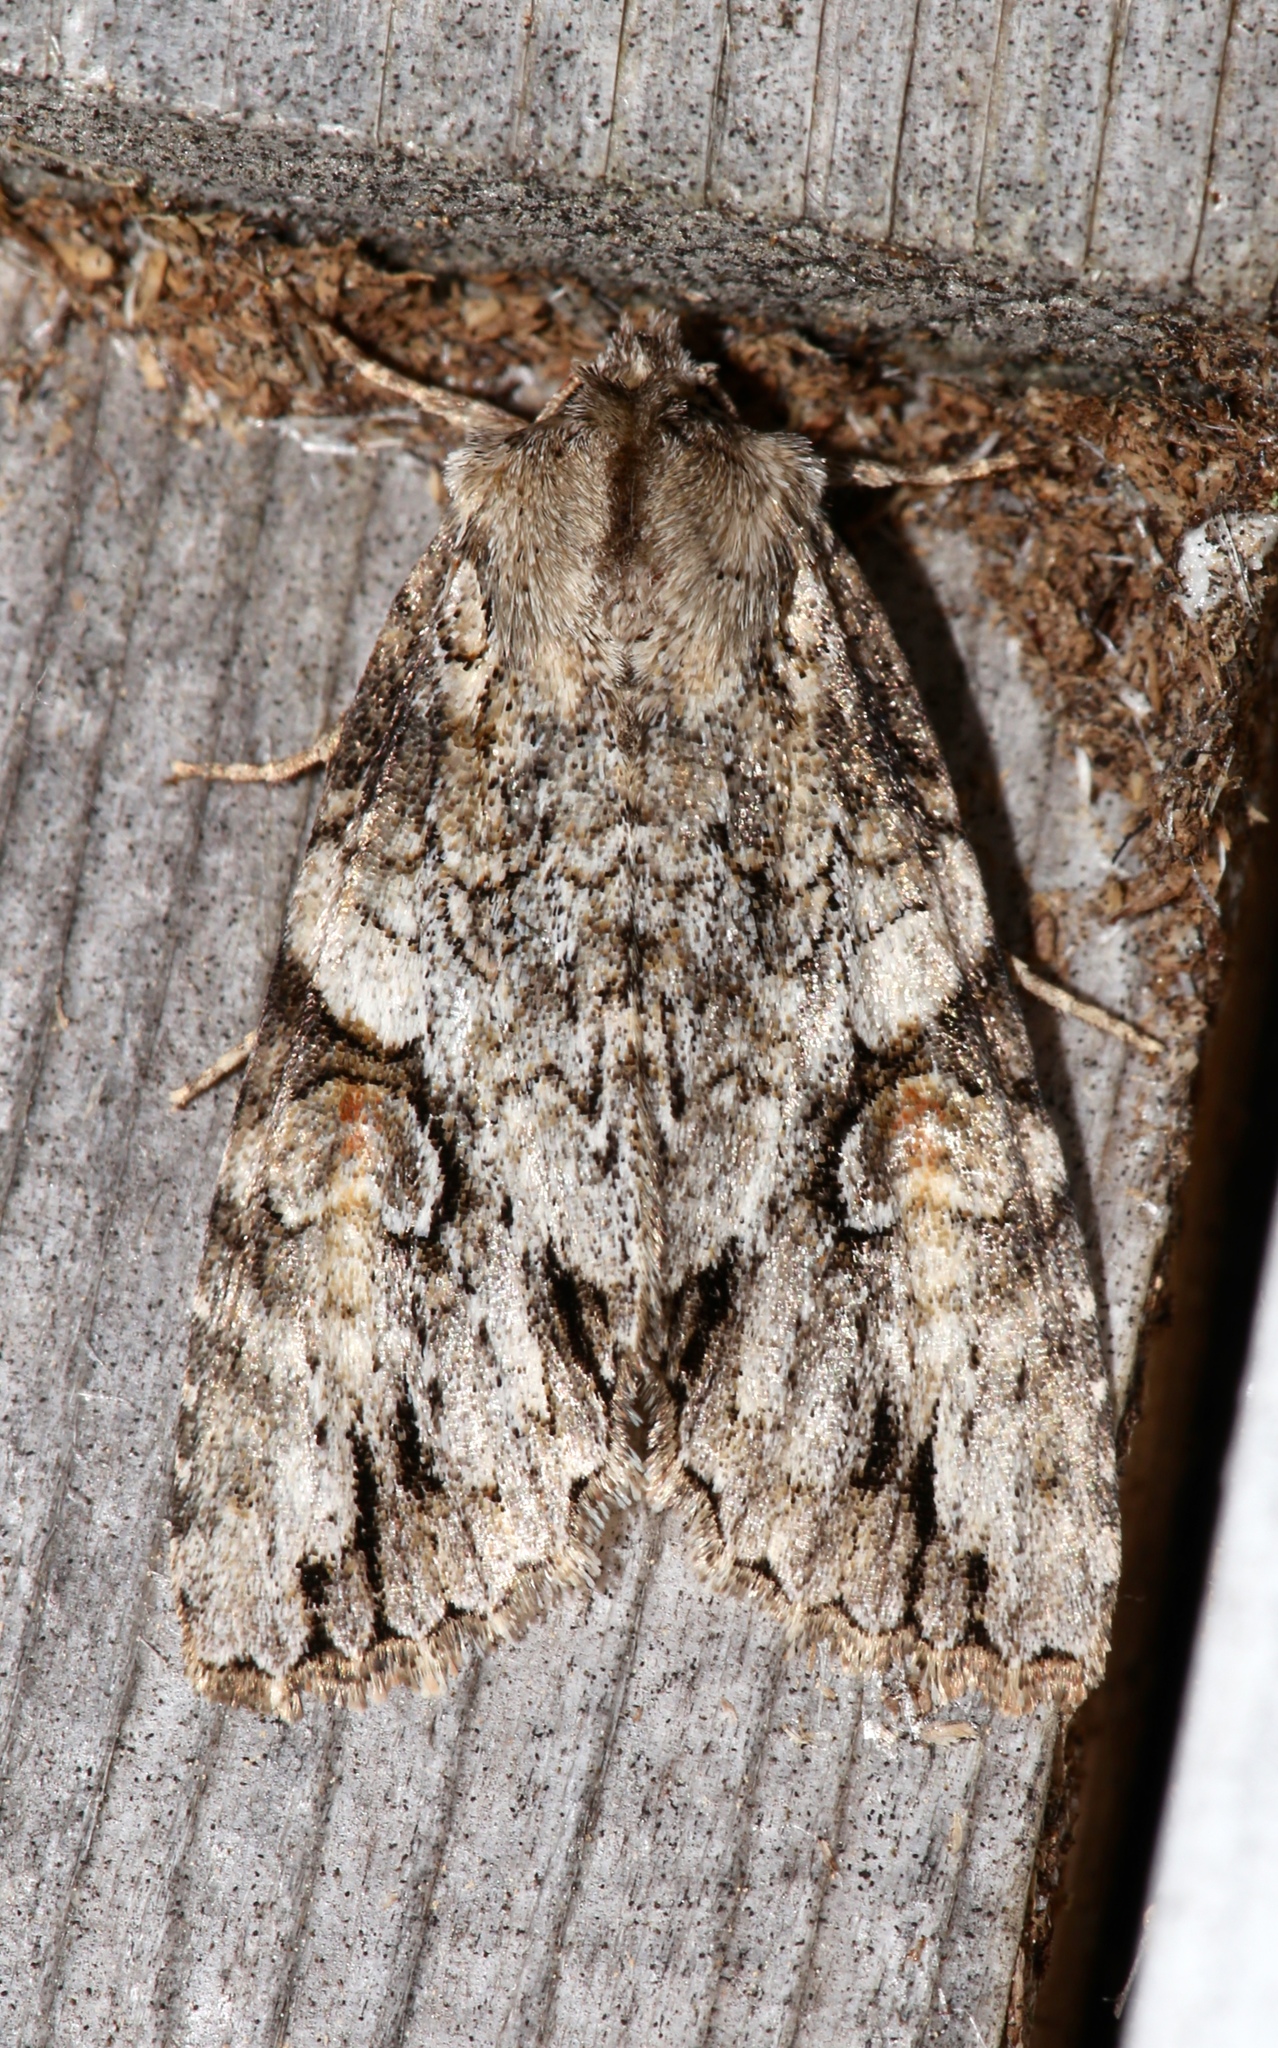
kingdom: Animalia
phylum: Arthropoda
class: Insecta
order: Lepidoptera
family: Noctuidae
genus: Achatia
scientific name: Achatia latex
